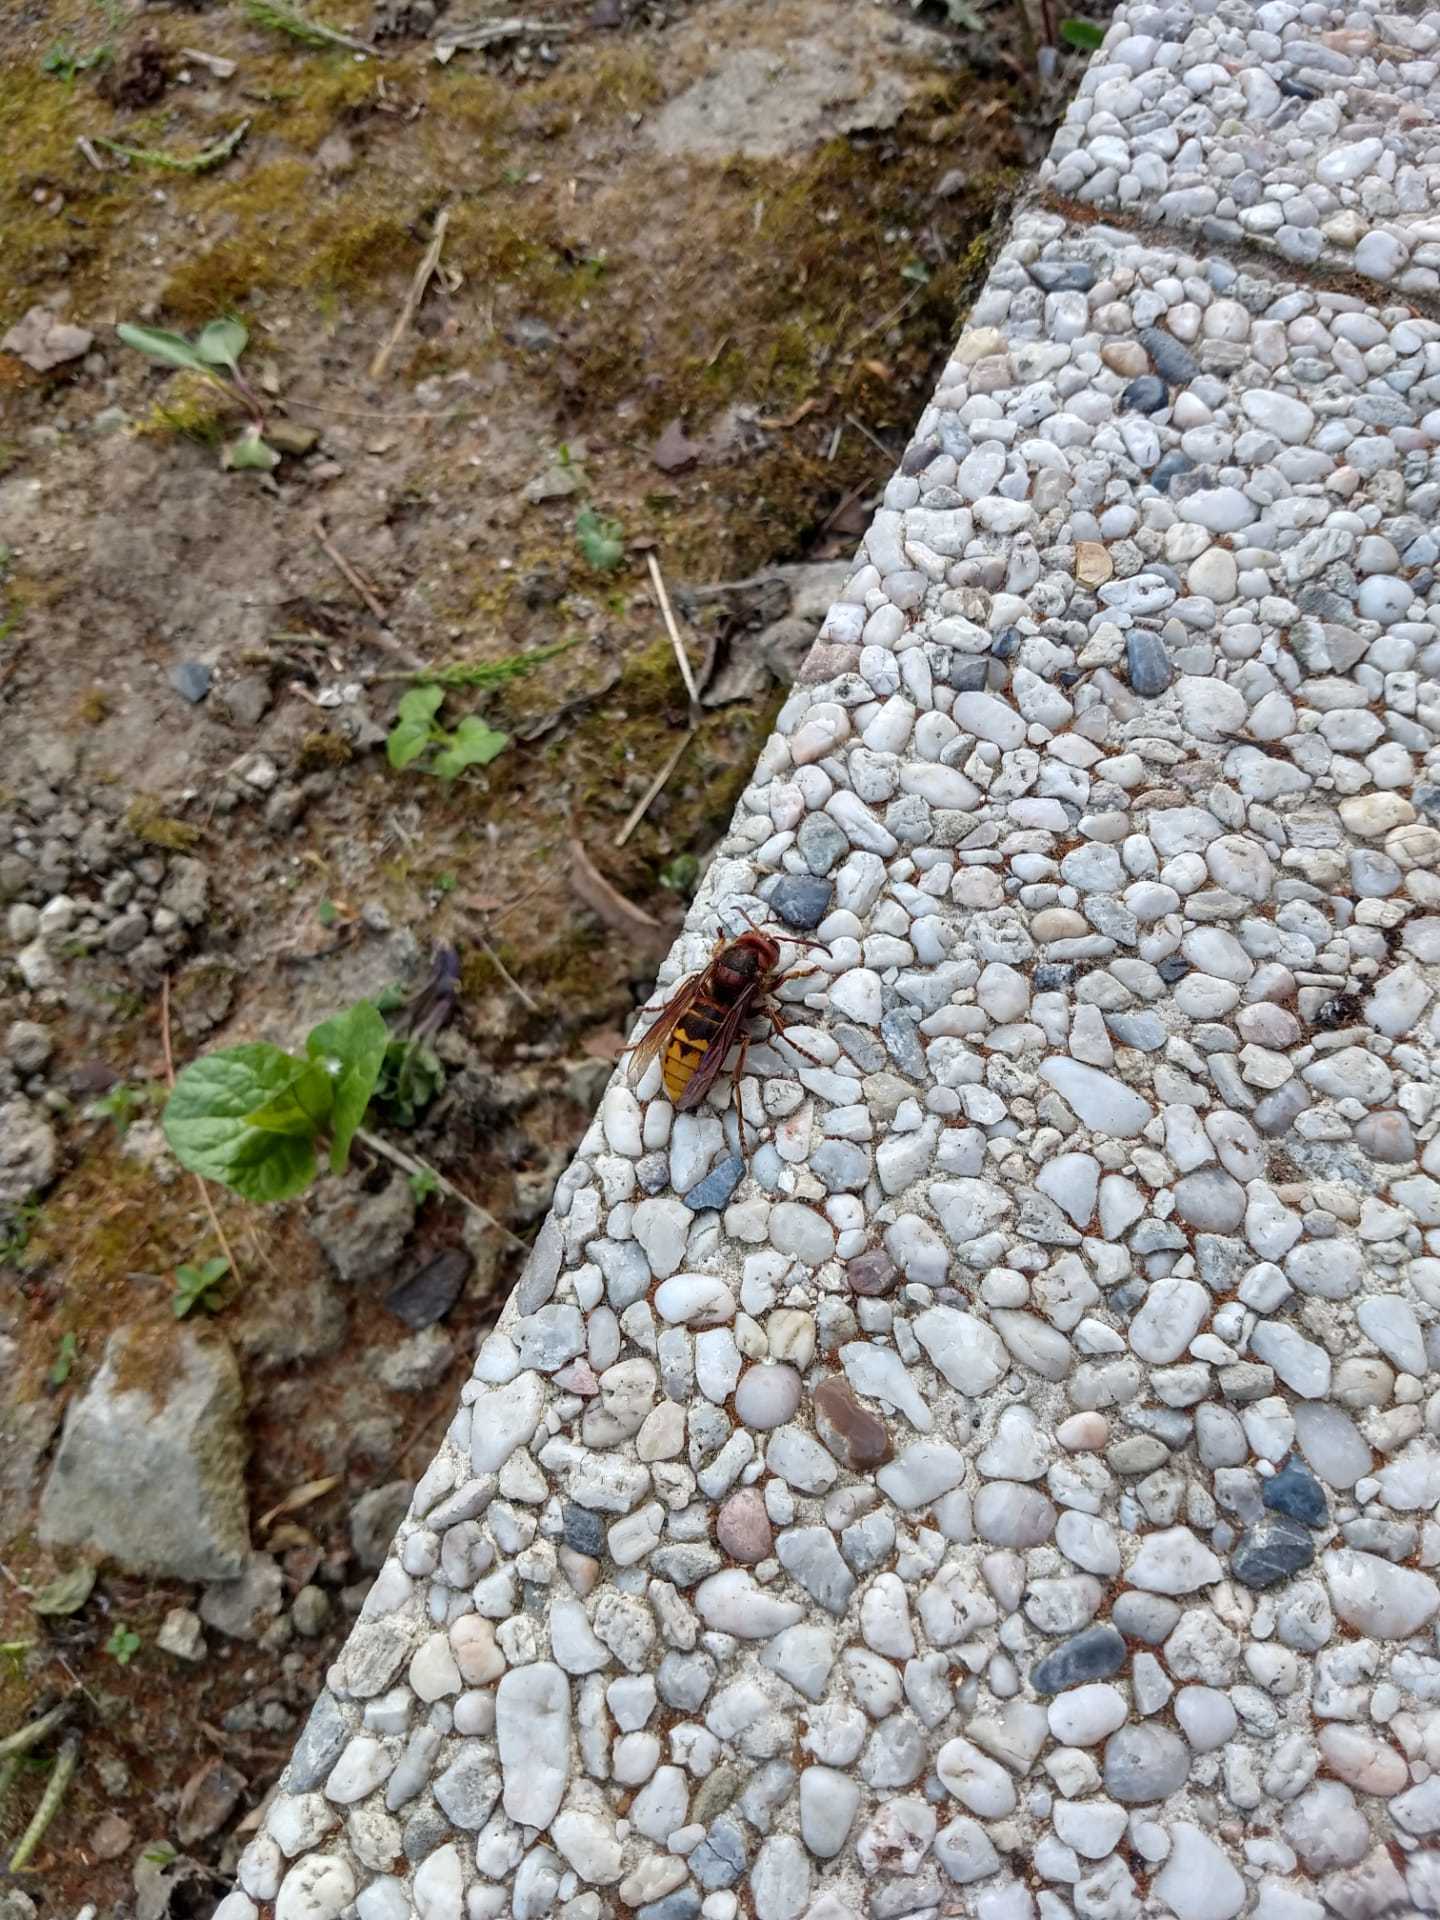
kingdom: Animalia
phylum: Arthropoda
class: Insecta
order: Hymenoptera
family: Vespidae
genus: Vespa
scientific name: Vespa crabro
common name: Hornet
